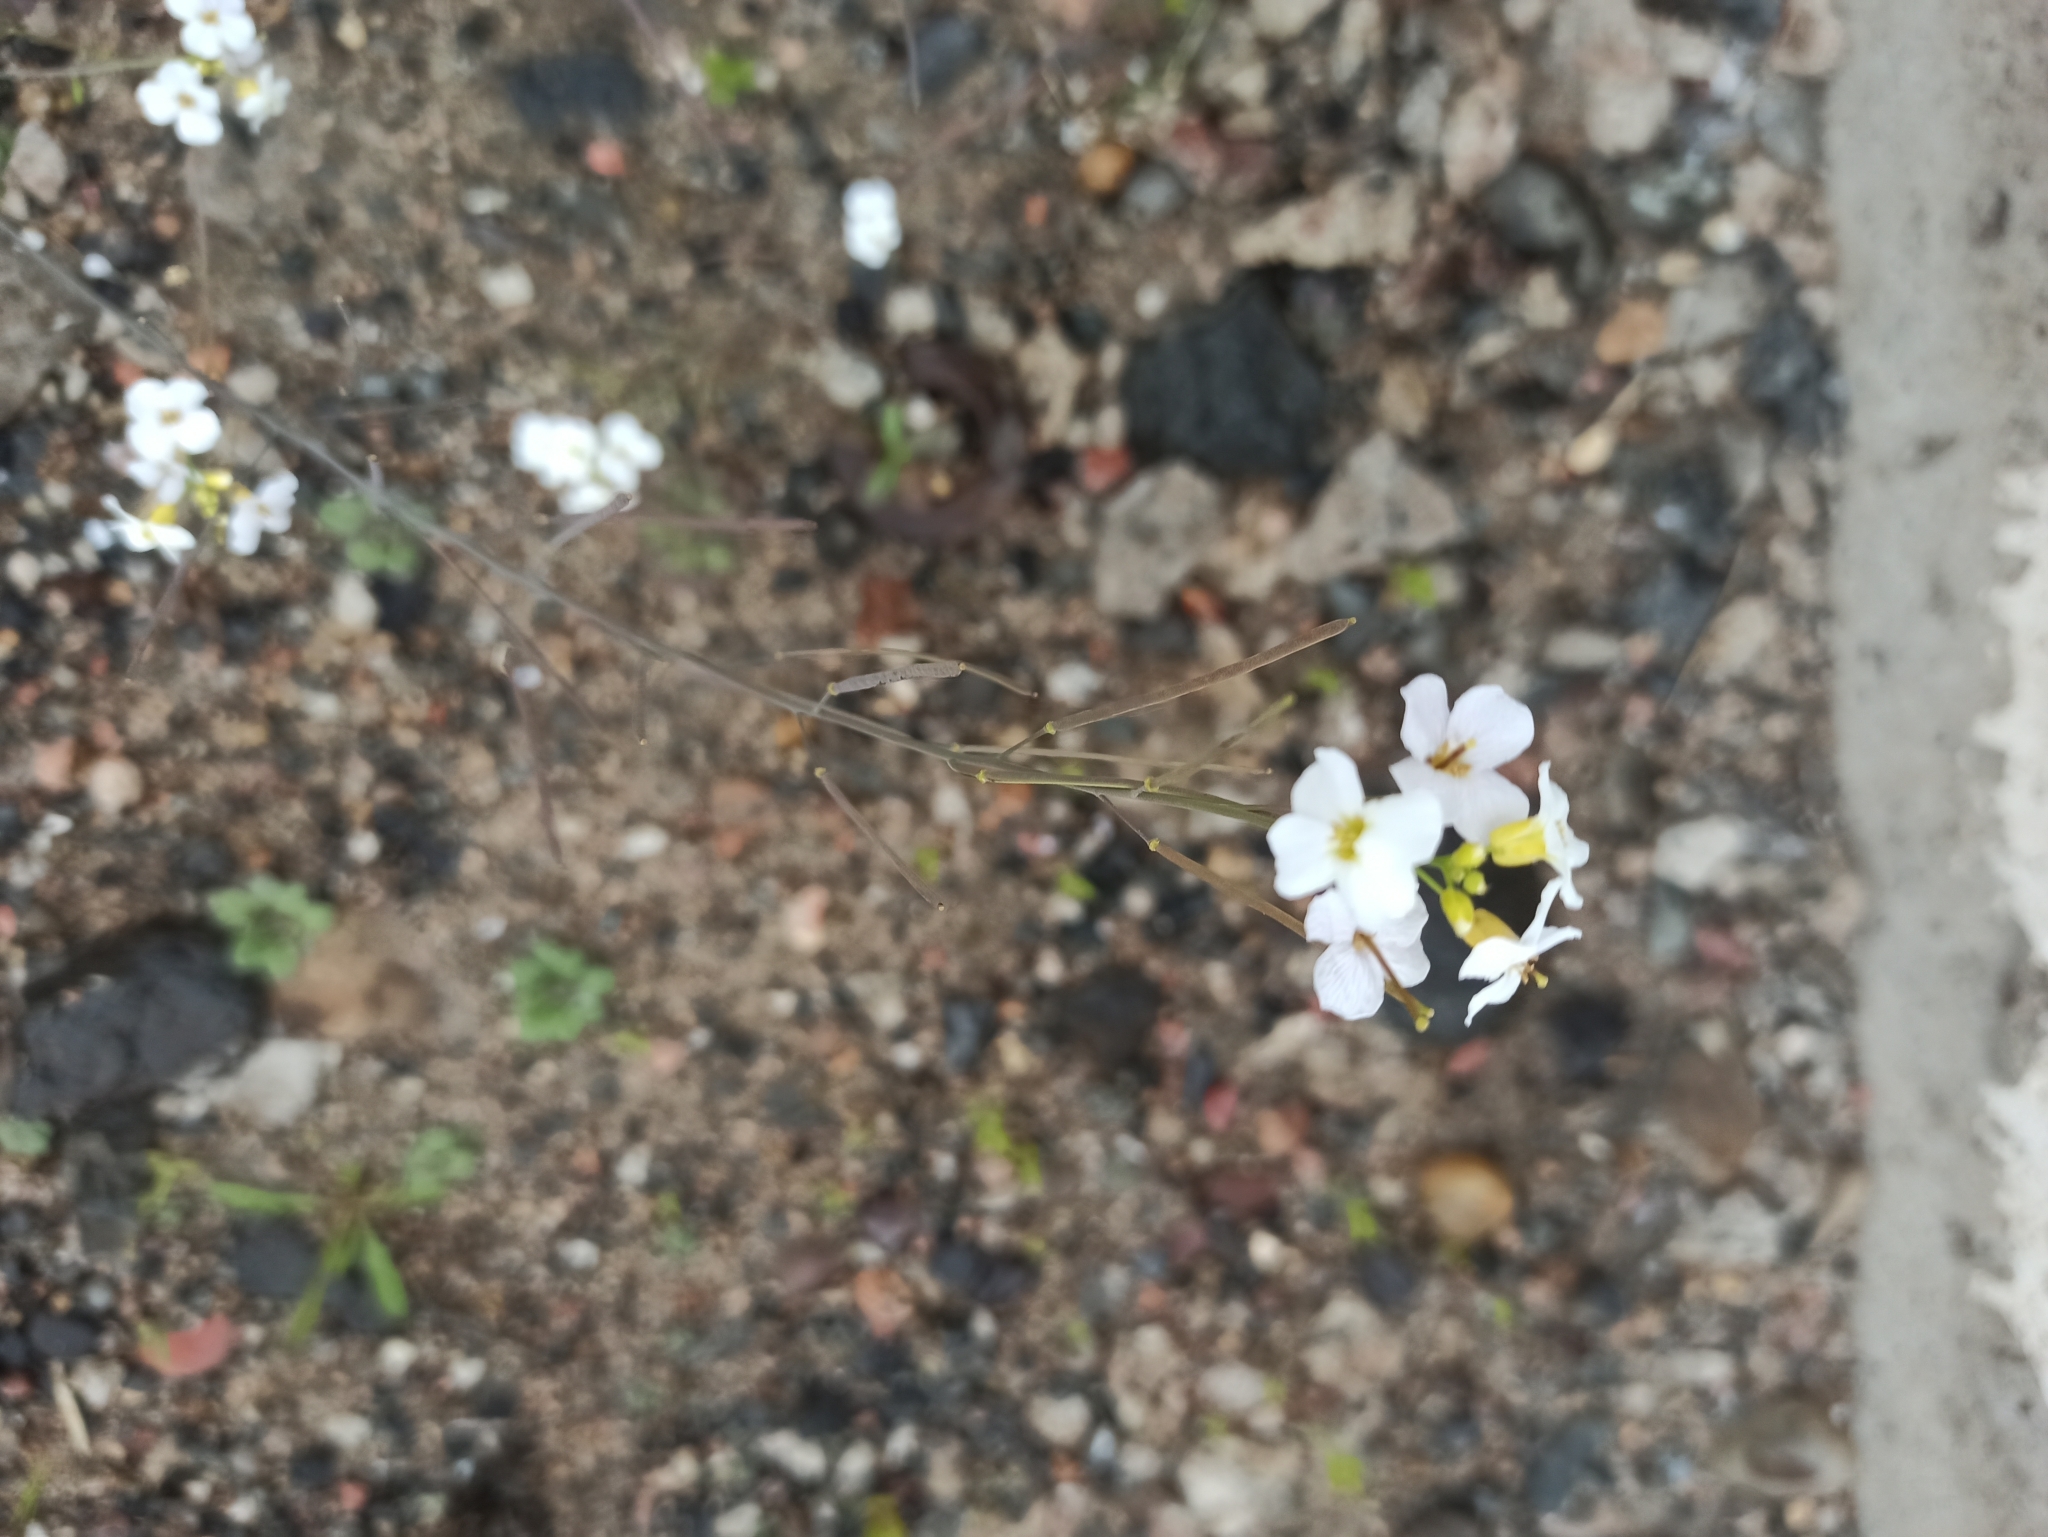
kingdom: Plantae
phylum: Tracheophyta
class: Magnoliopsida
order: Brassicales
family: Brassicaceae
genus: Arabidopsis
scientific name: Arabidopsis arenosa
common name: Sand rock-cress
